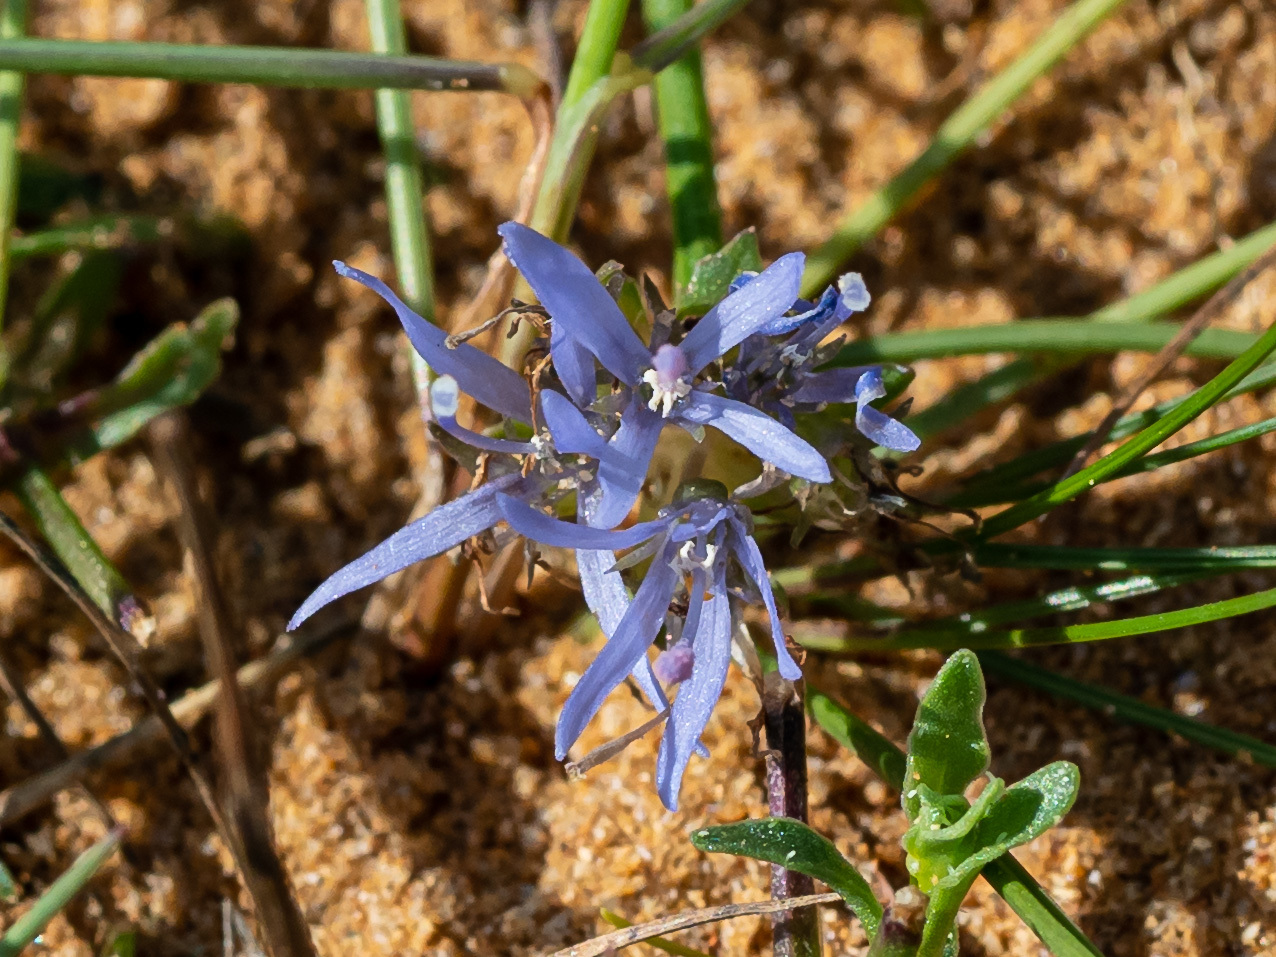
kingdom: Plantae
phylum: Tracheophyta
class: Magnoliopsida
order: Asterales
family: Campanulaceae
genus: Jasione
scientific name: Jasione montana
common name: Sheep's-bit
